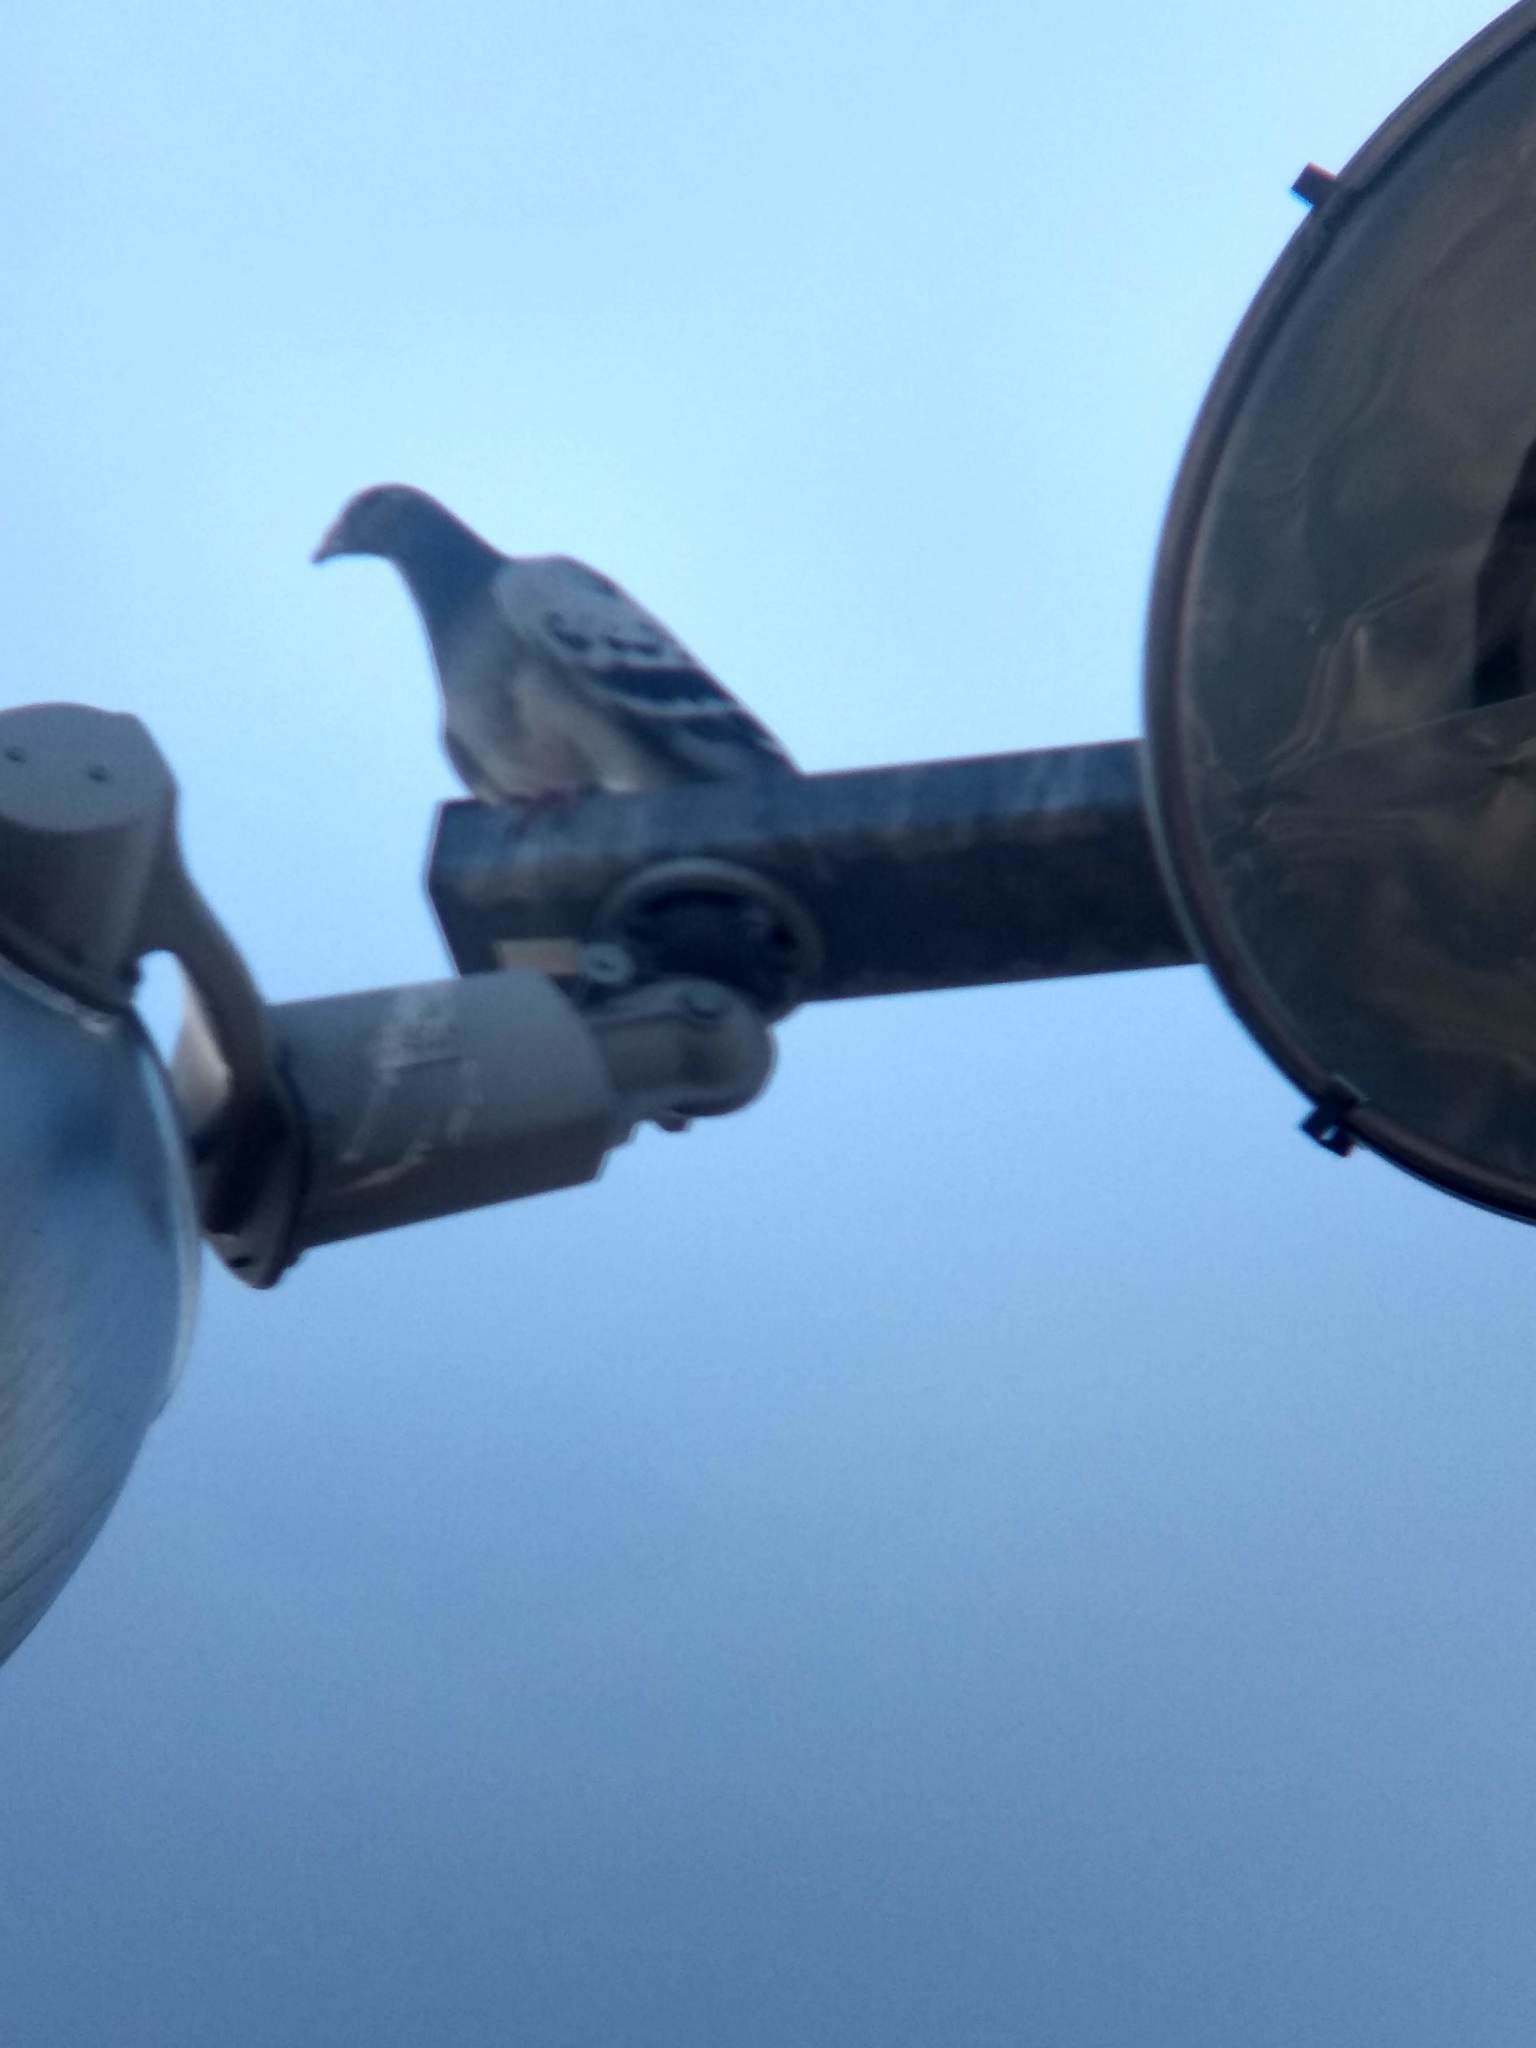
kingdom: Animalia
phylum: Chordata
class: Aves
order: Columbiformes
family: Columbidae
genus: Columba
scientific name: Columba livia
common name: Rock pigeon
